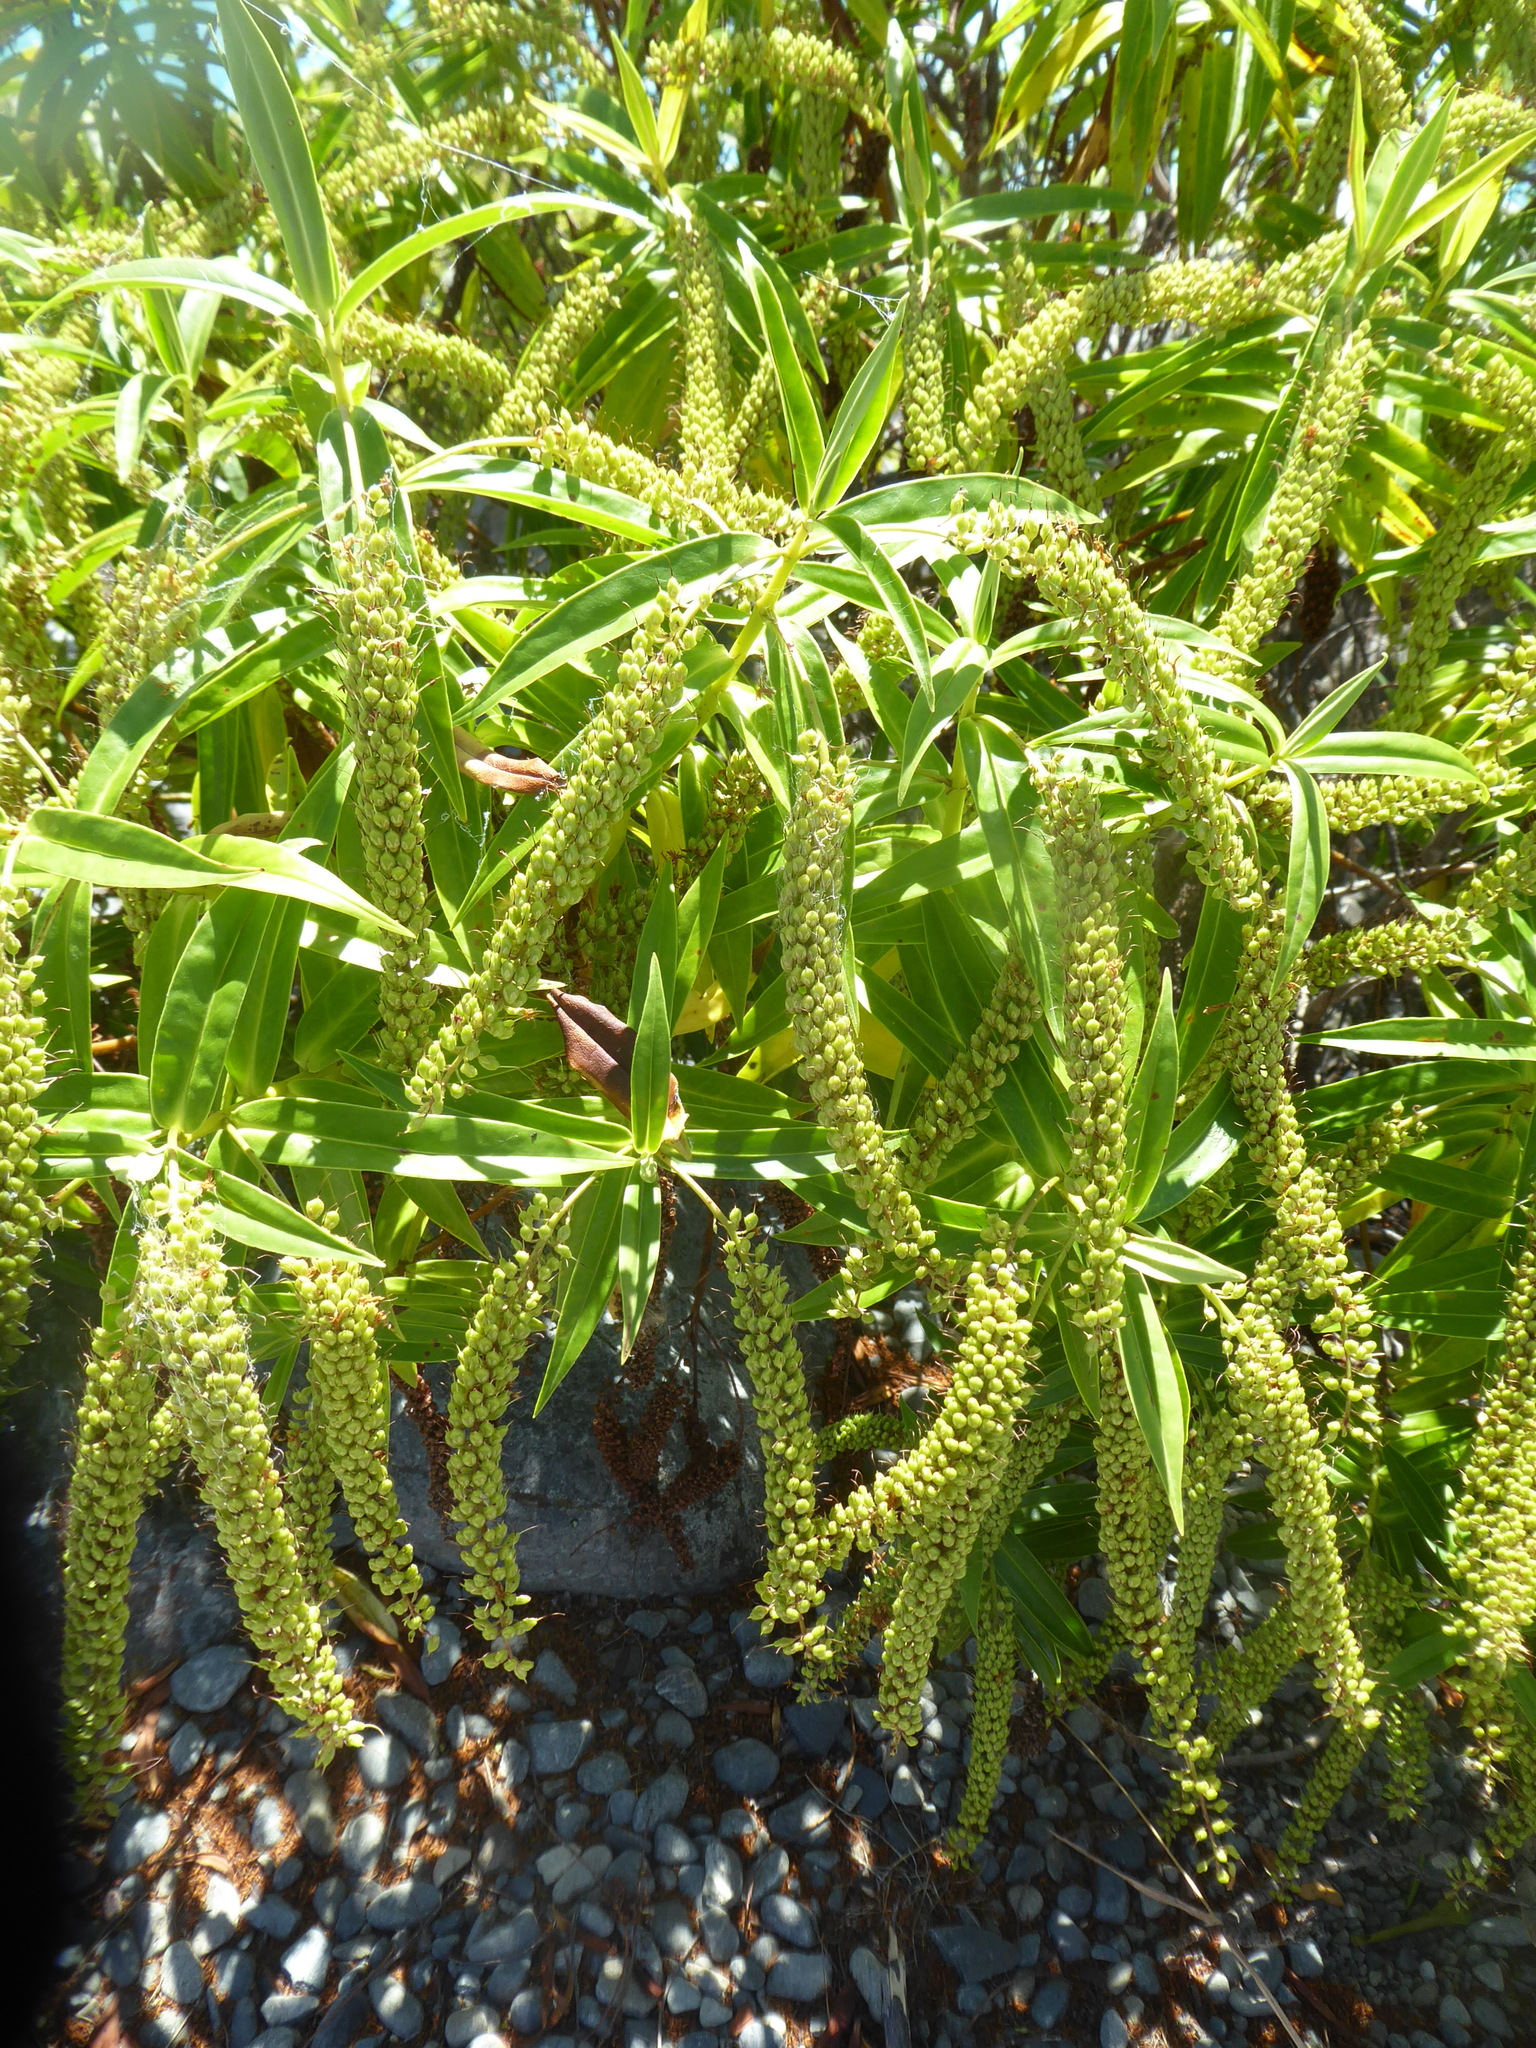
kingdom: Plantae
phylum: Tracheophyta
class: Magnoliopsida
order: Lamiales
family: Plantaginaceae
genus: Veronica
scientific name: Veronica salicifolia
